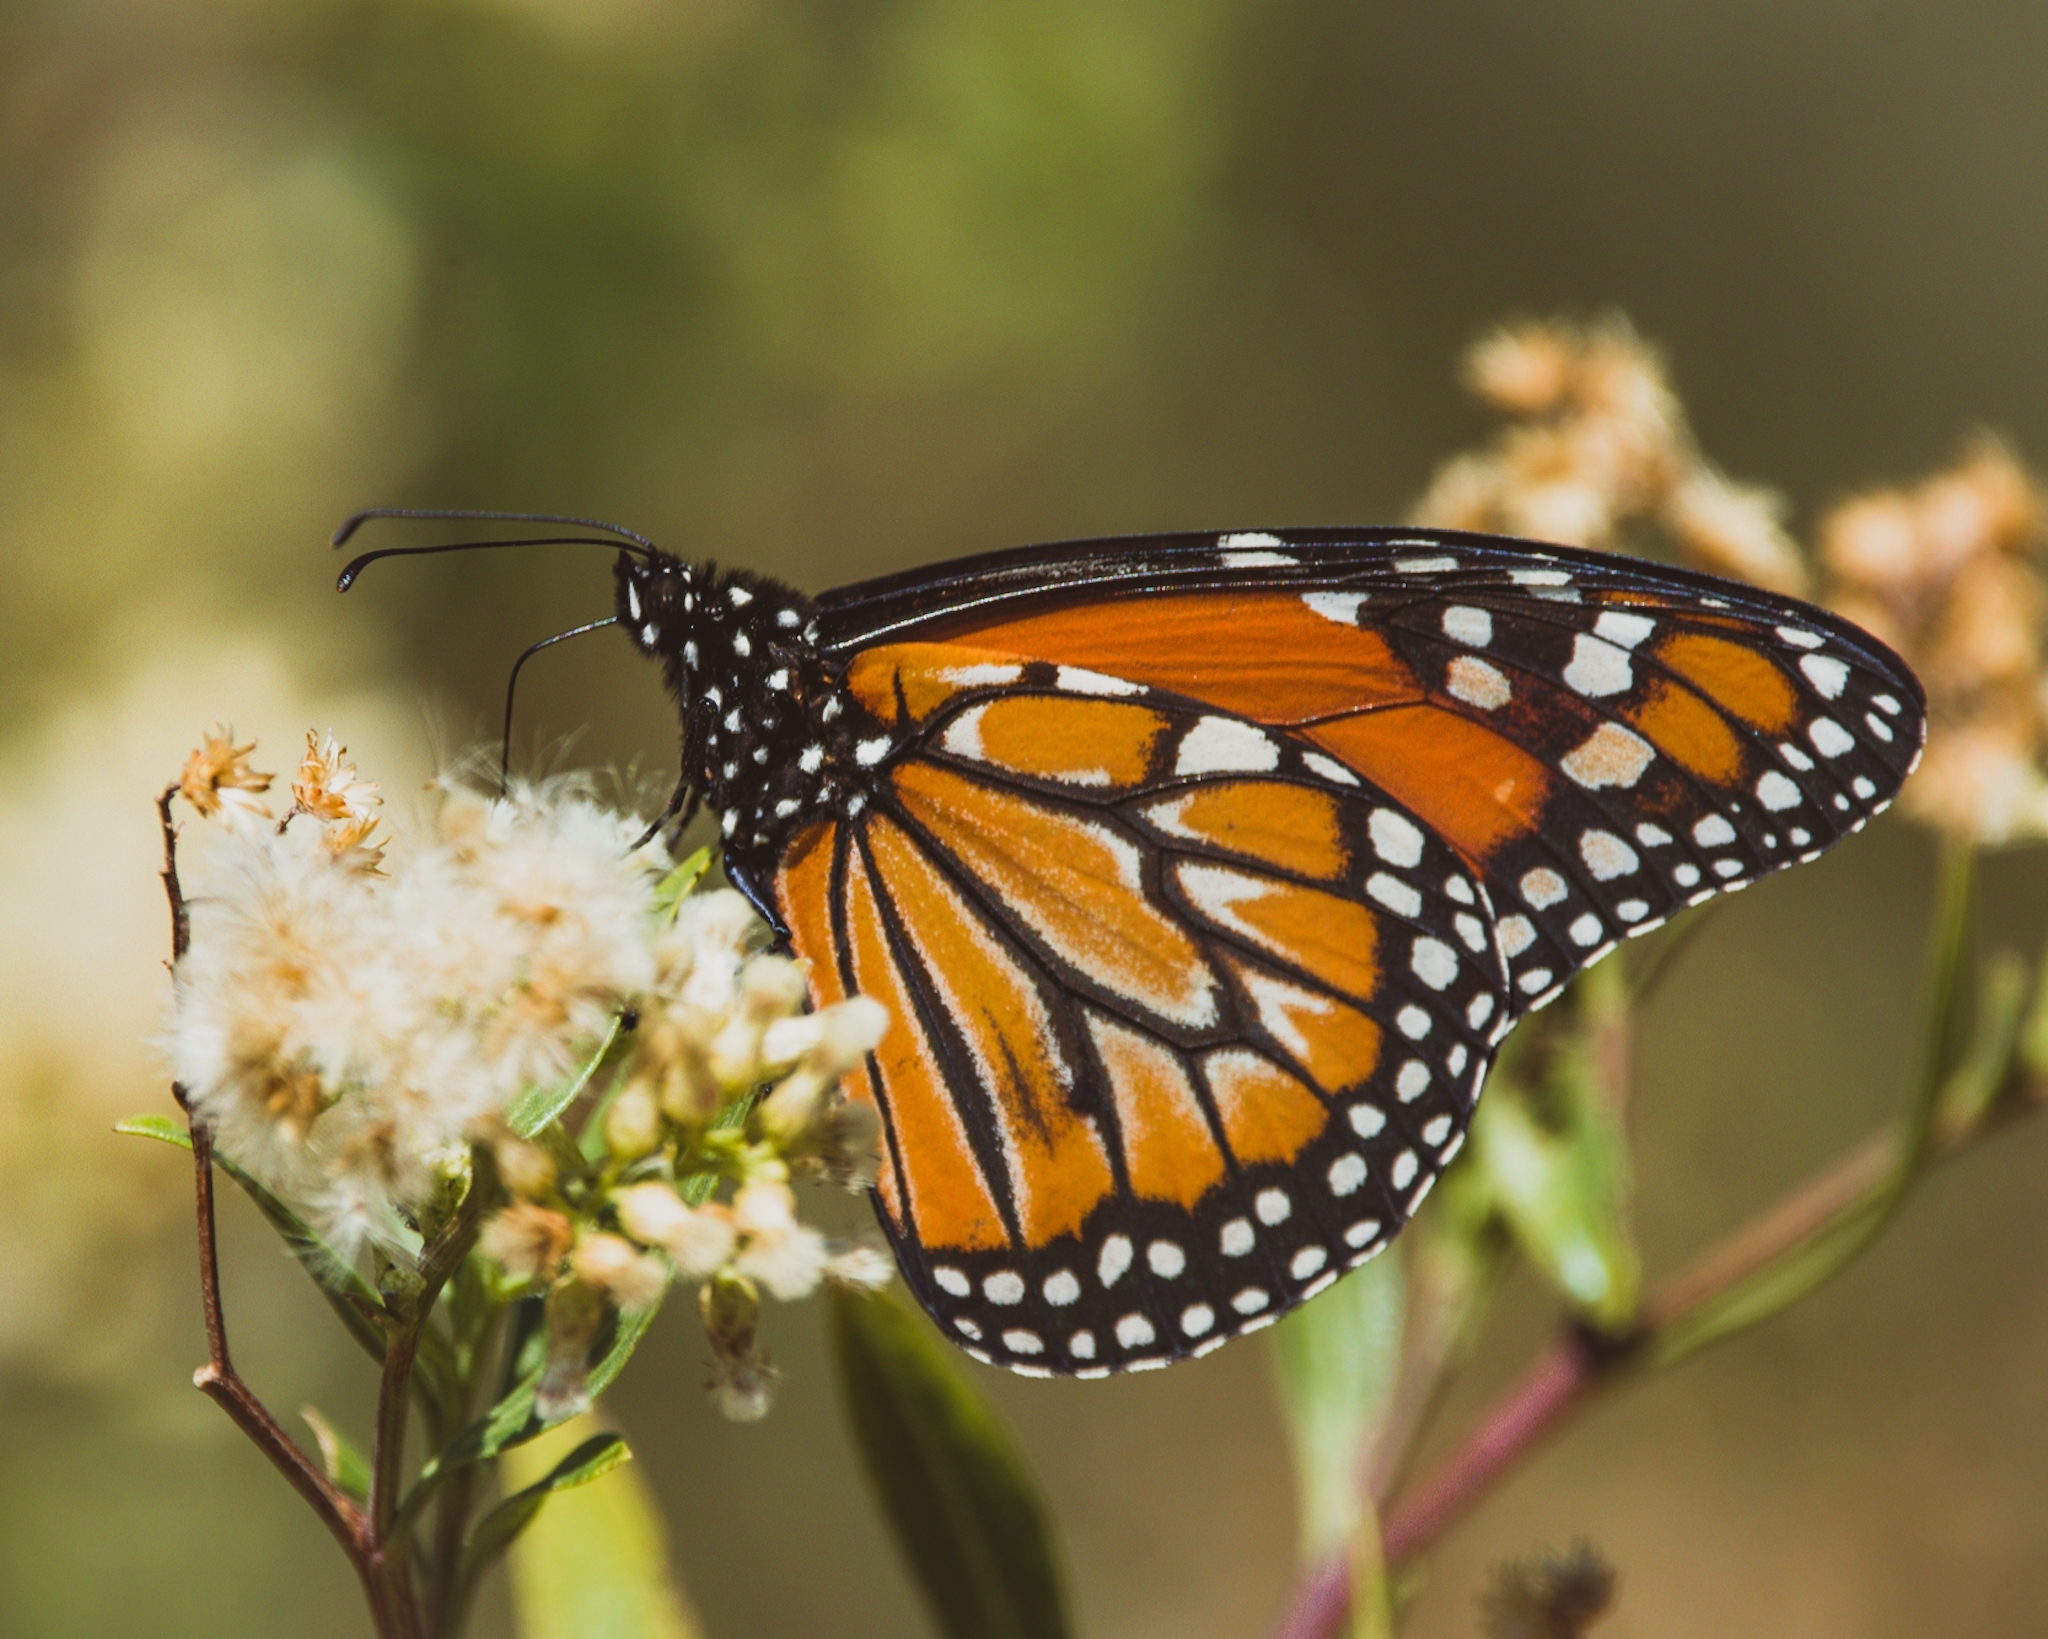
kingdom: Animalia
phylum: Arthropoda
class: Insecta
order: Lepidoptera
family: Nymphalidae
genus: Danaus
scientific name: Danaus erippus
